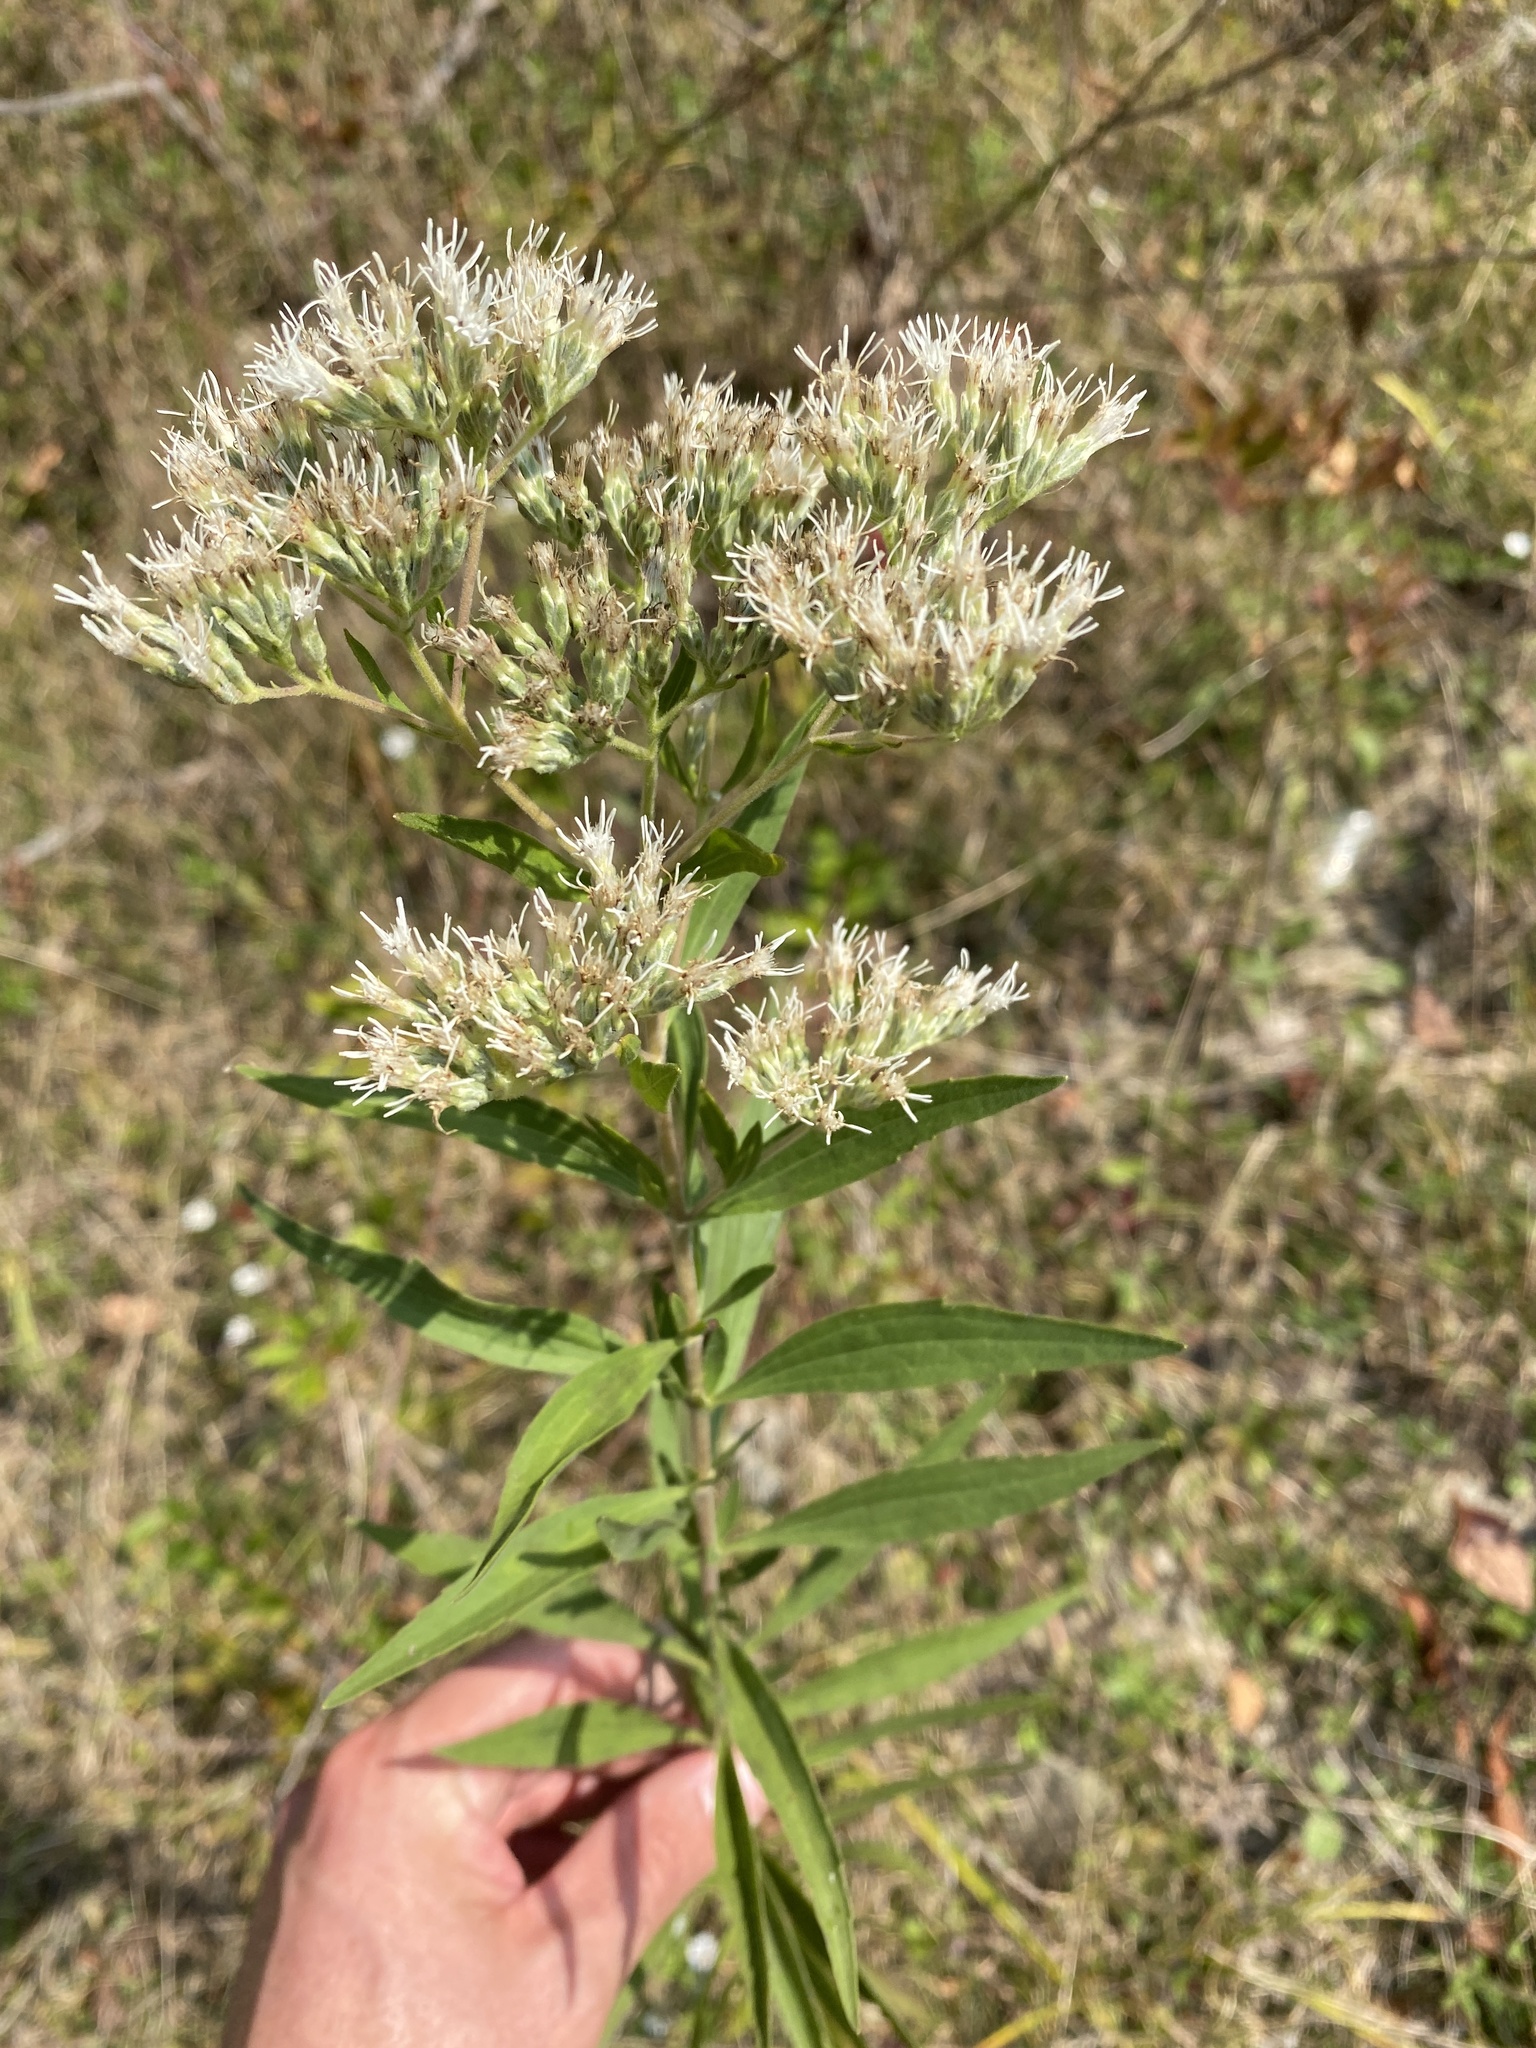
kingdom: Plantae
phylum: Tracheophyta
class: Magnoliopsida
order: Asterales
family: Asteraceae
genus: Eupatorium
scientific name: Eupatorium altissimum
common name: Tall thoroughwort
